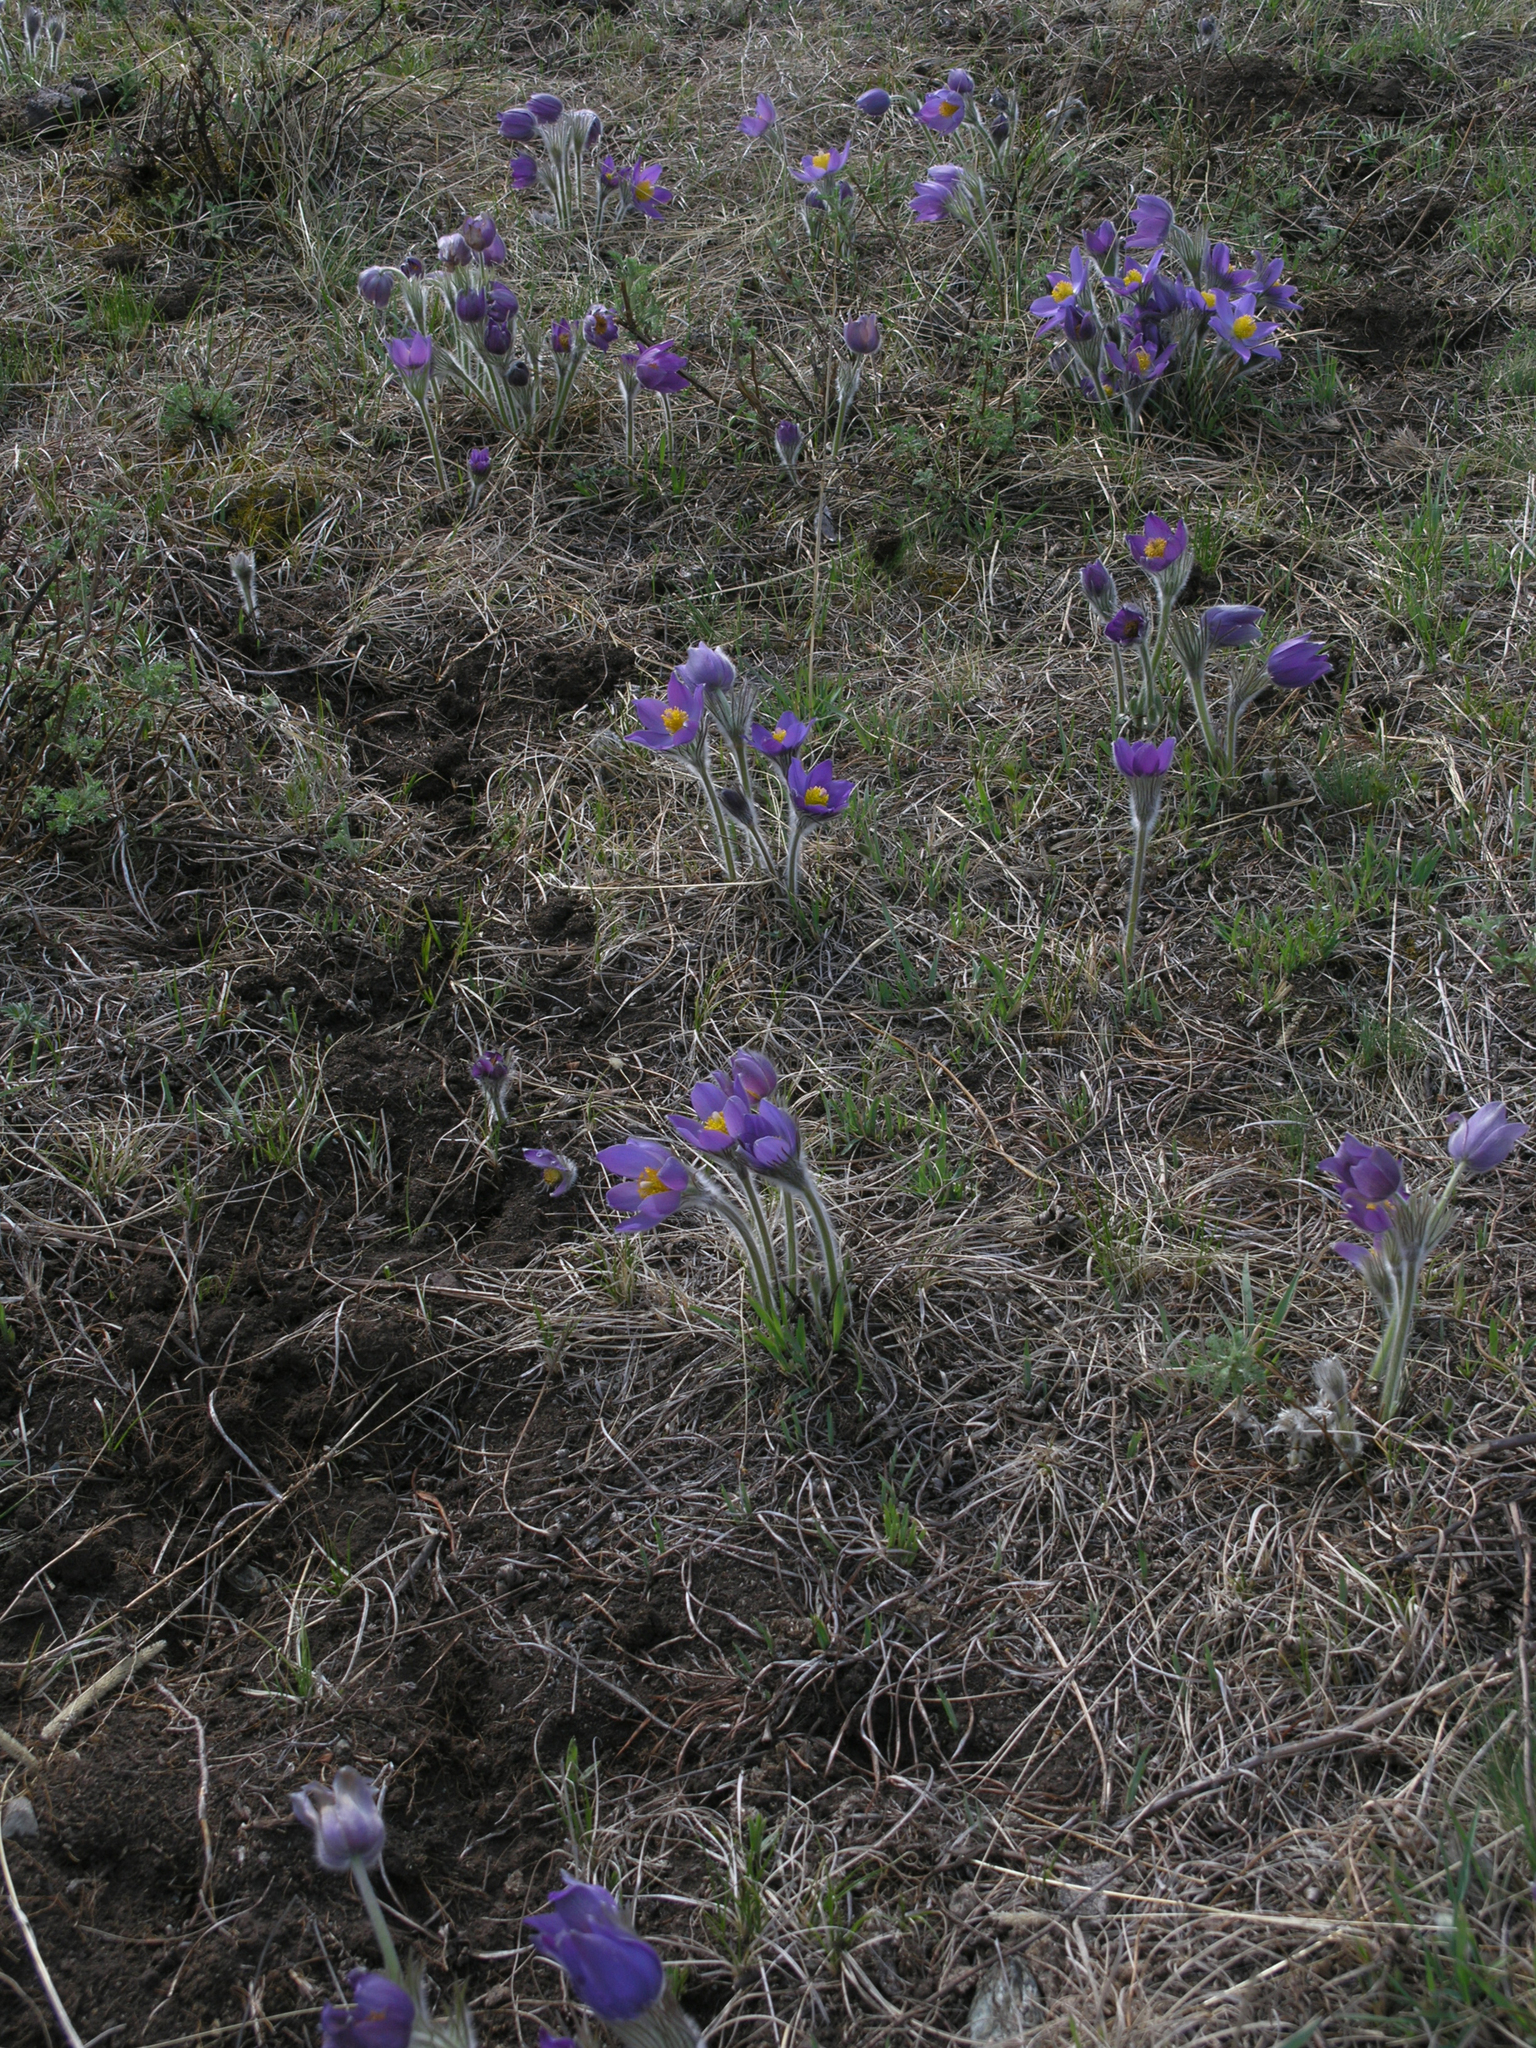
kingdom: Plantae
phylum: Tracheophyta
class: Magnoliopsida
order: Ranunculales
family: Ranunculaceae
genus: Pulsatilla
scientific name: Pulsatilla patens
